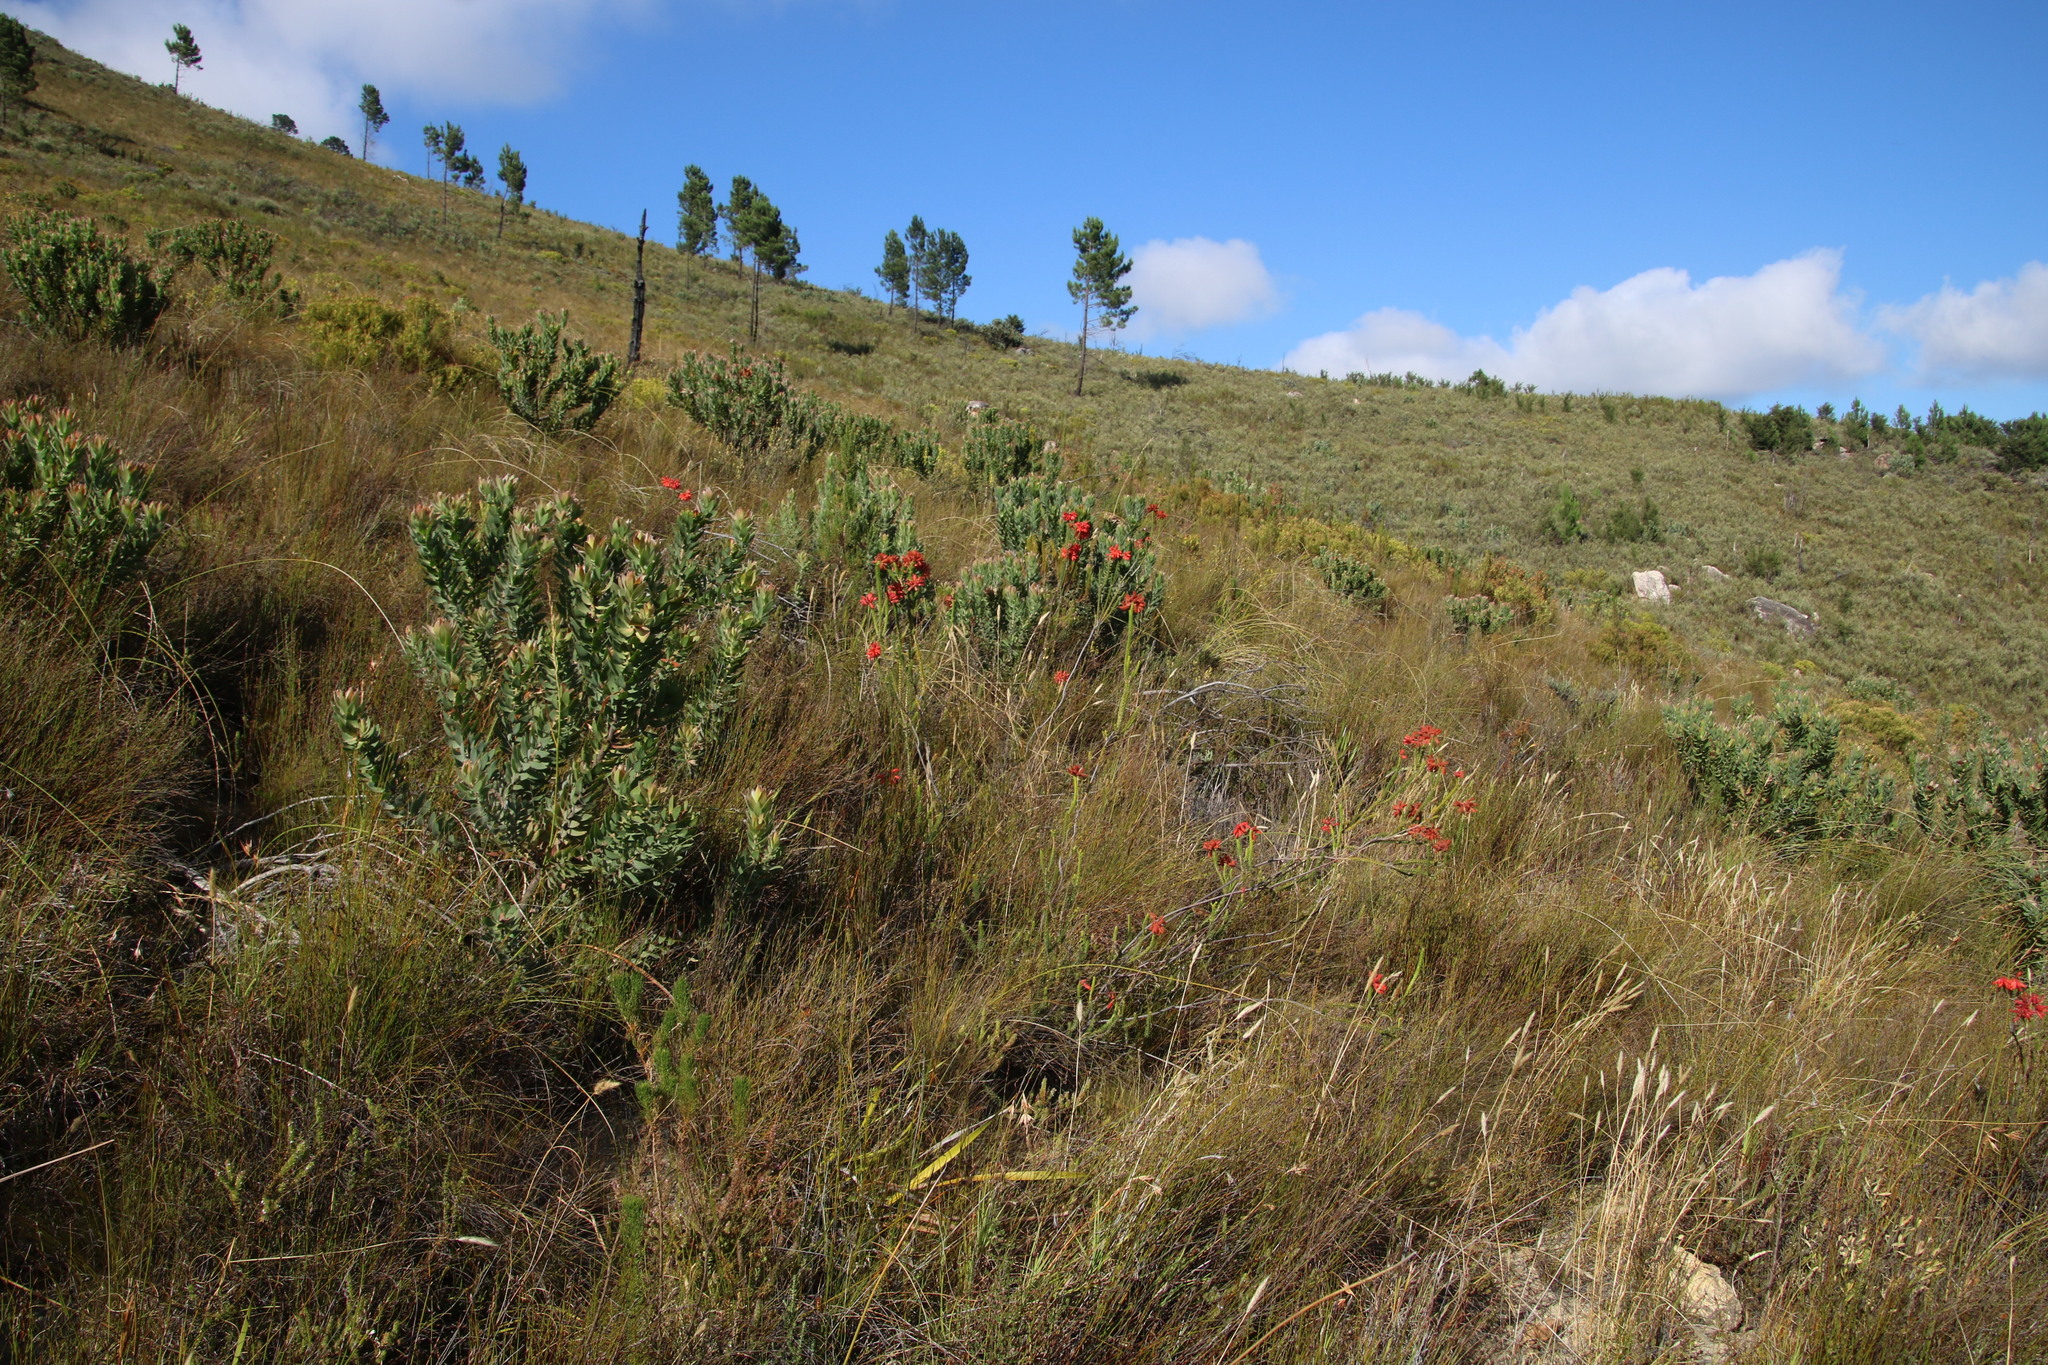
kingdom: Plantae
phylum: Tracheophyta
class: Magnoliopsida
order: Ericales
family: Ericaceae
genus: Erica
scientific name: Erica cerinthoides
